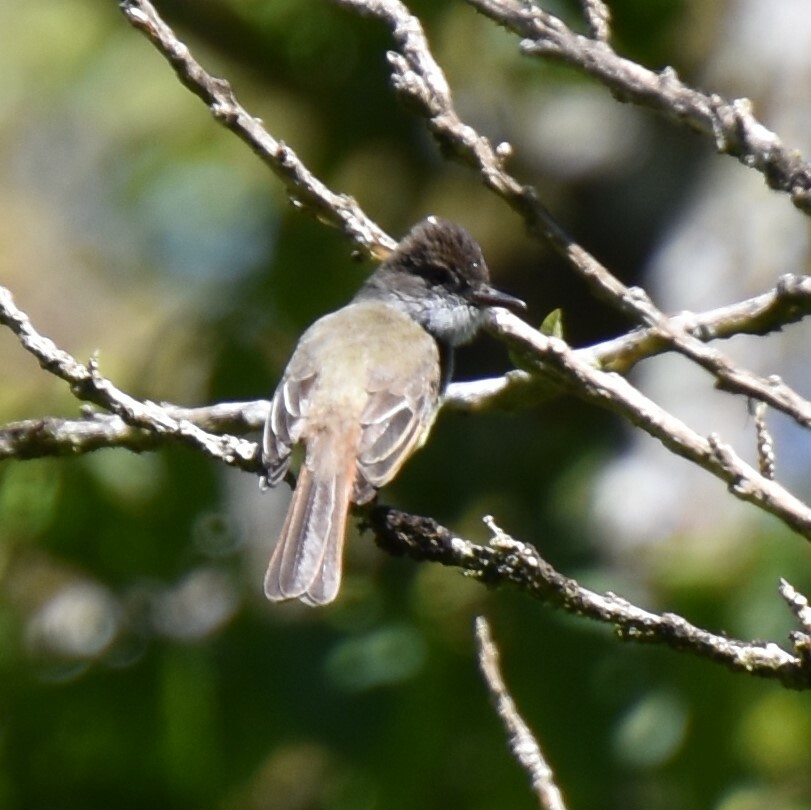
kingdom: Animalia
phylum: Chordata
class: Aves
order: Passeriformes
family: Tyrannidae
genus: Myiarchus
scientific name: Myiarchus tuberculifer
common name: Dusky-capped flycatcher
